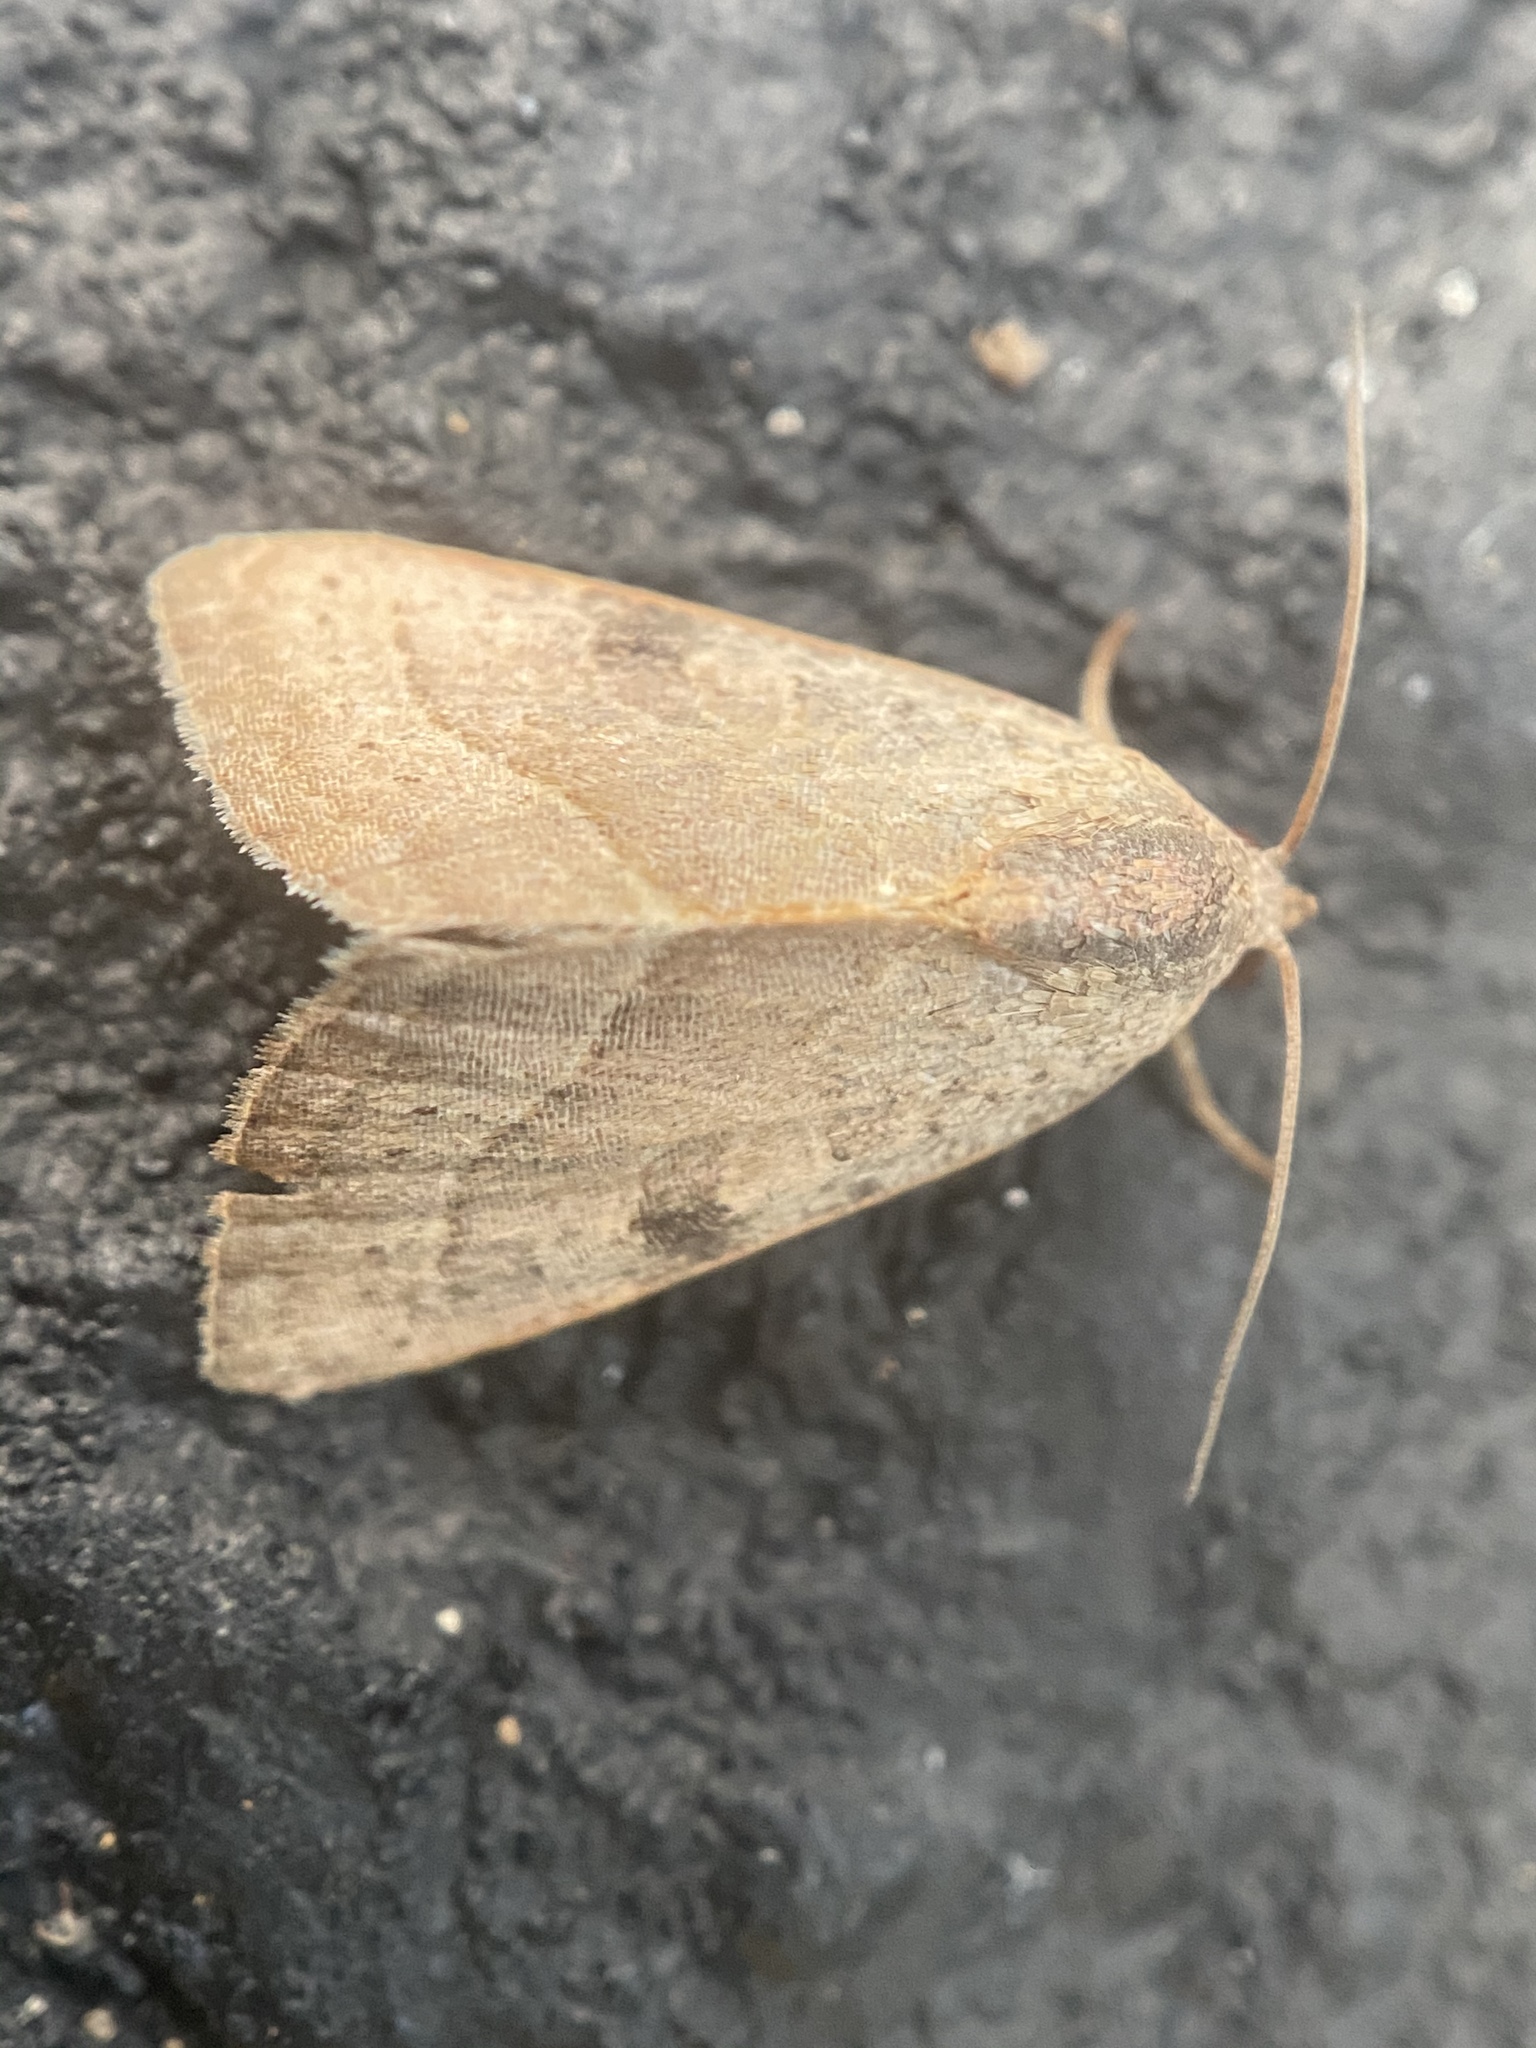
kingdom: Animalia
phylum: Arthropoda
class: Insecta
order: Lepidoptera
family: Noctuidae
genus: Galgula
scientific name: Galgula partita
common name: Wedgeling
